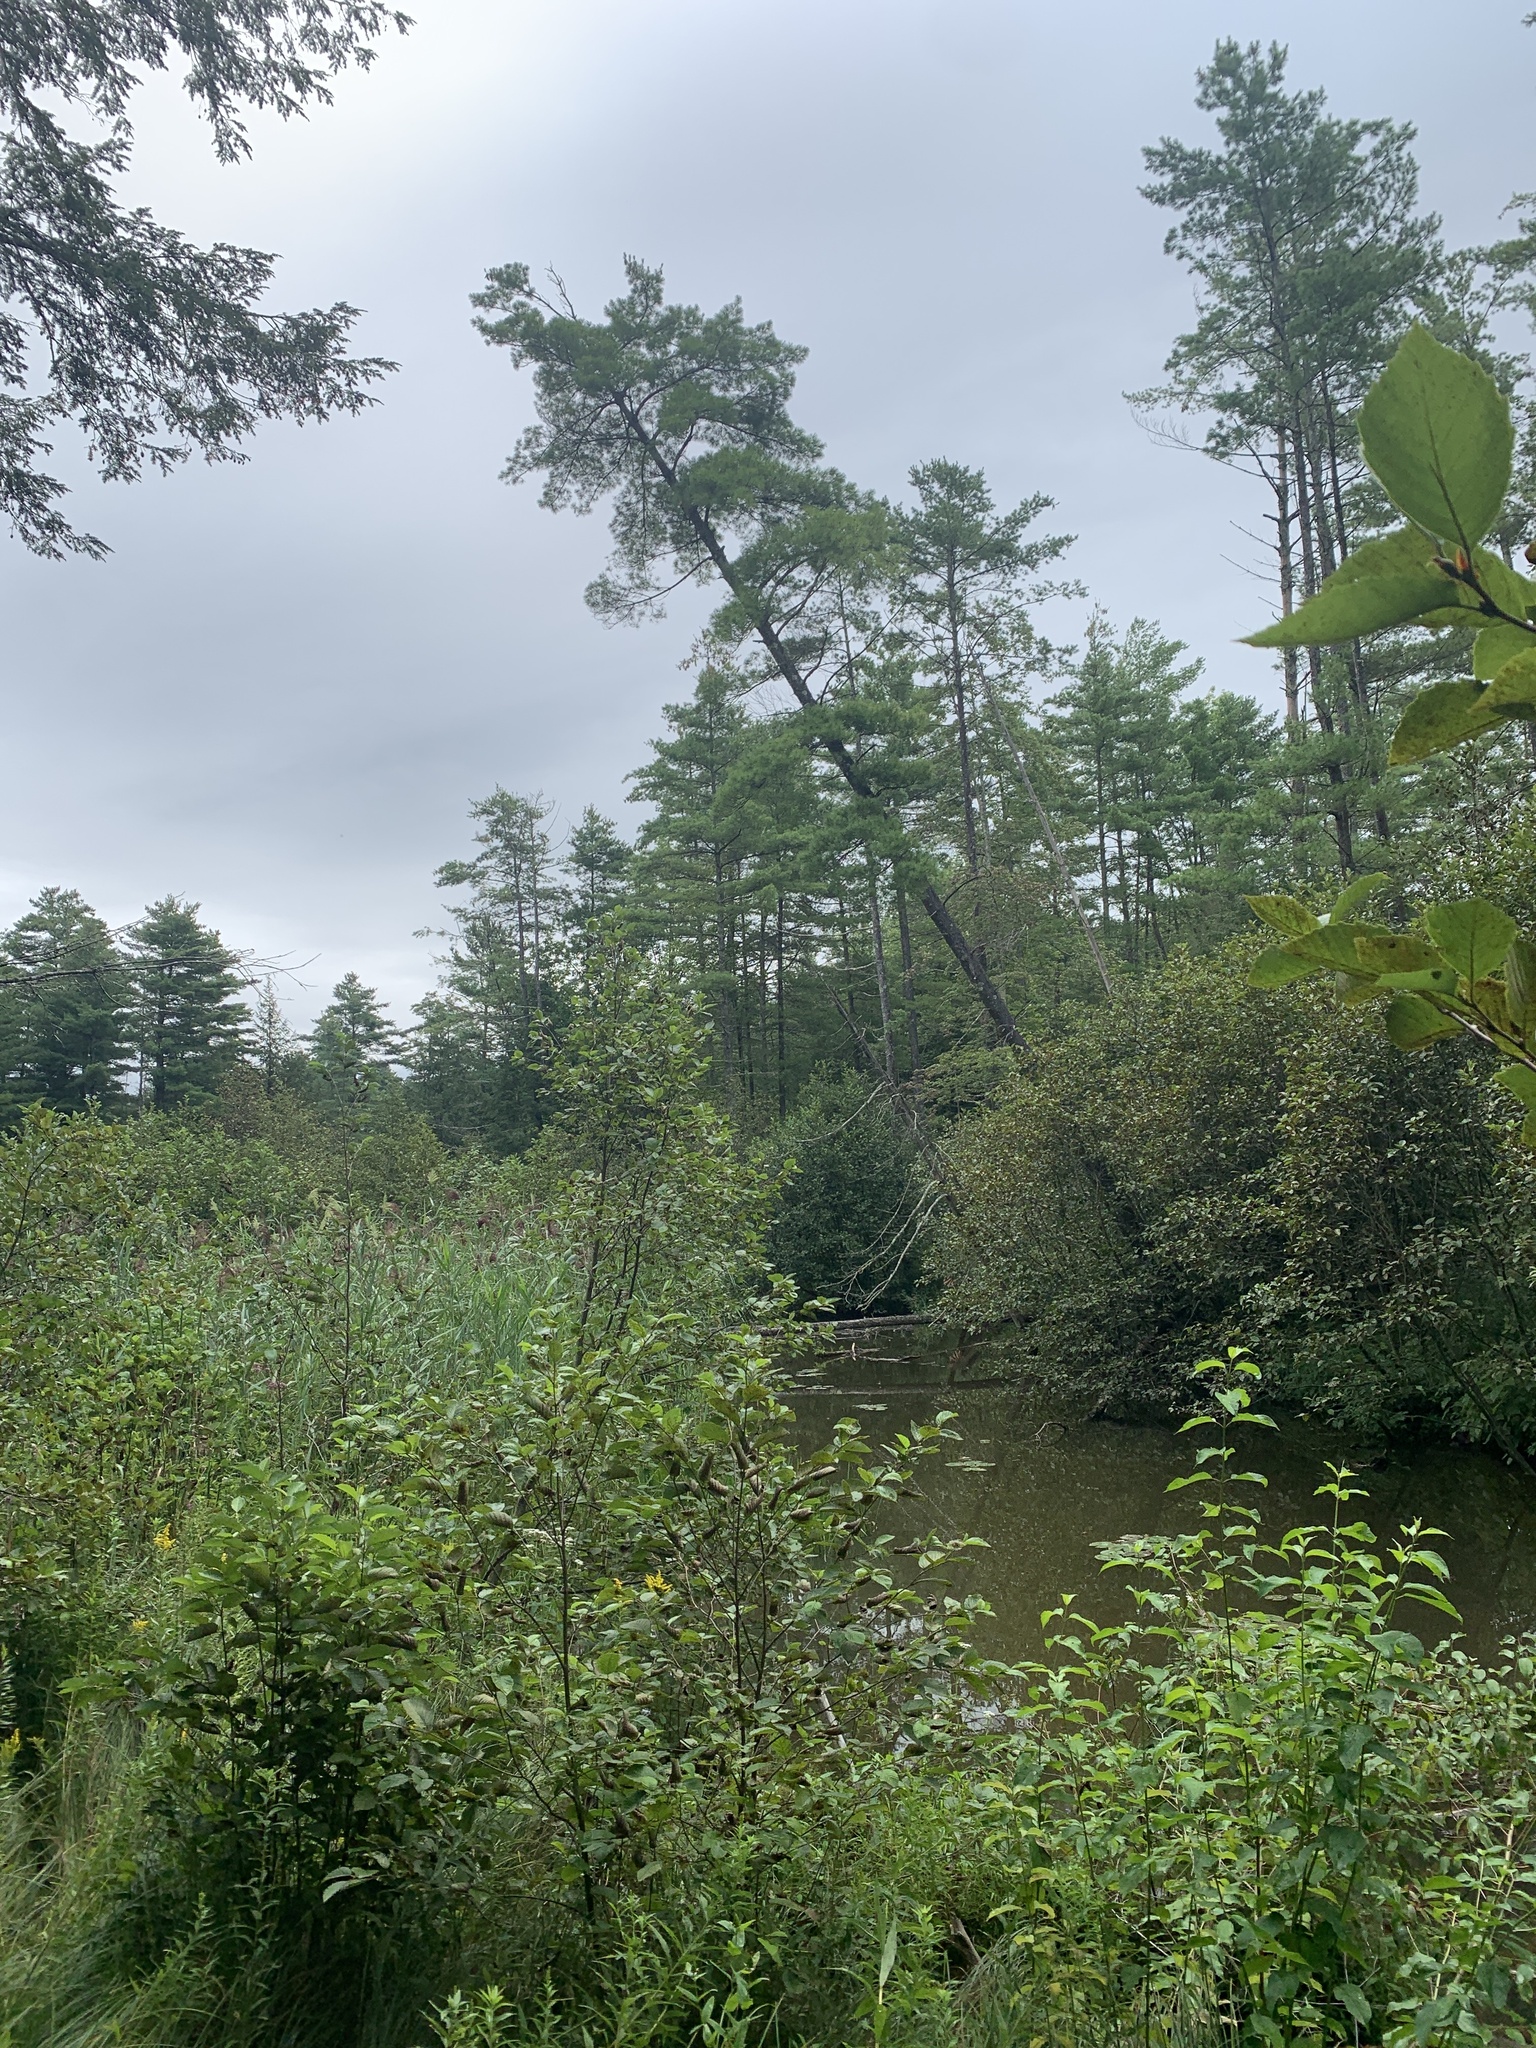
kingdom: Plantae
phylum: Tracheophyta
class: Pinopsida
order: Pinales
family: Pinaceae
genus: Pinus
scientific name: Pinus strobus
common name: Weymouth pine
